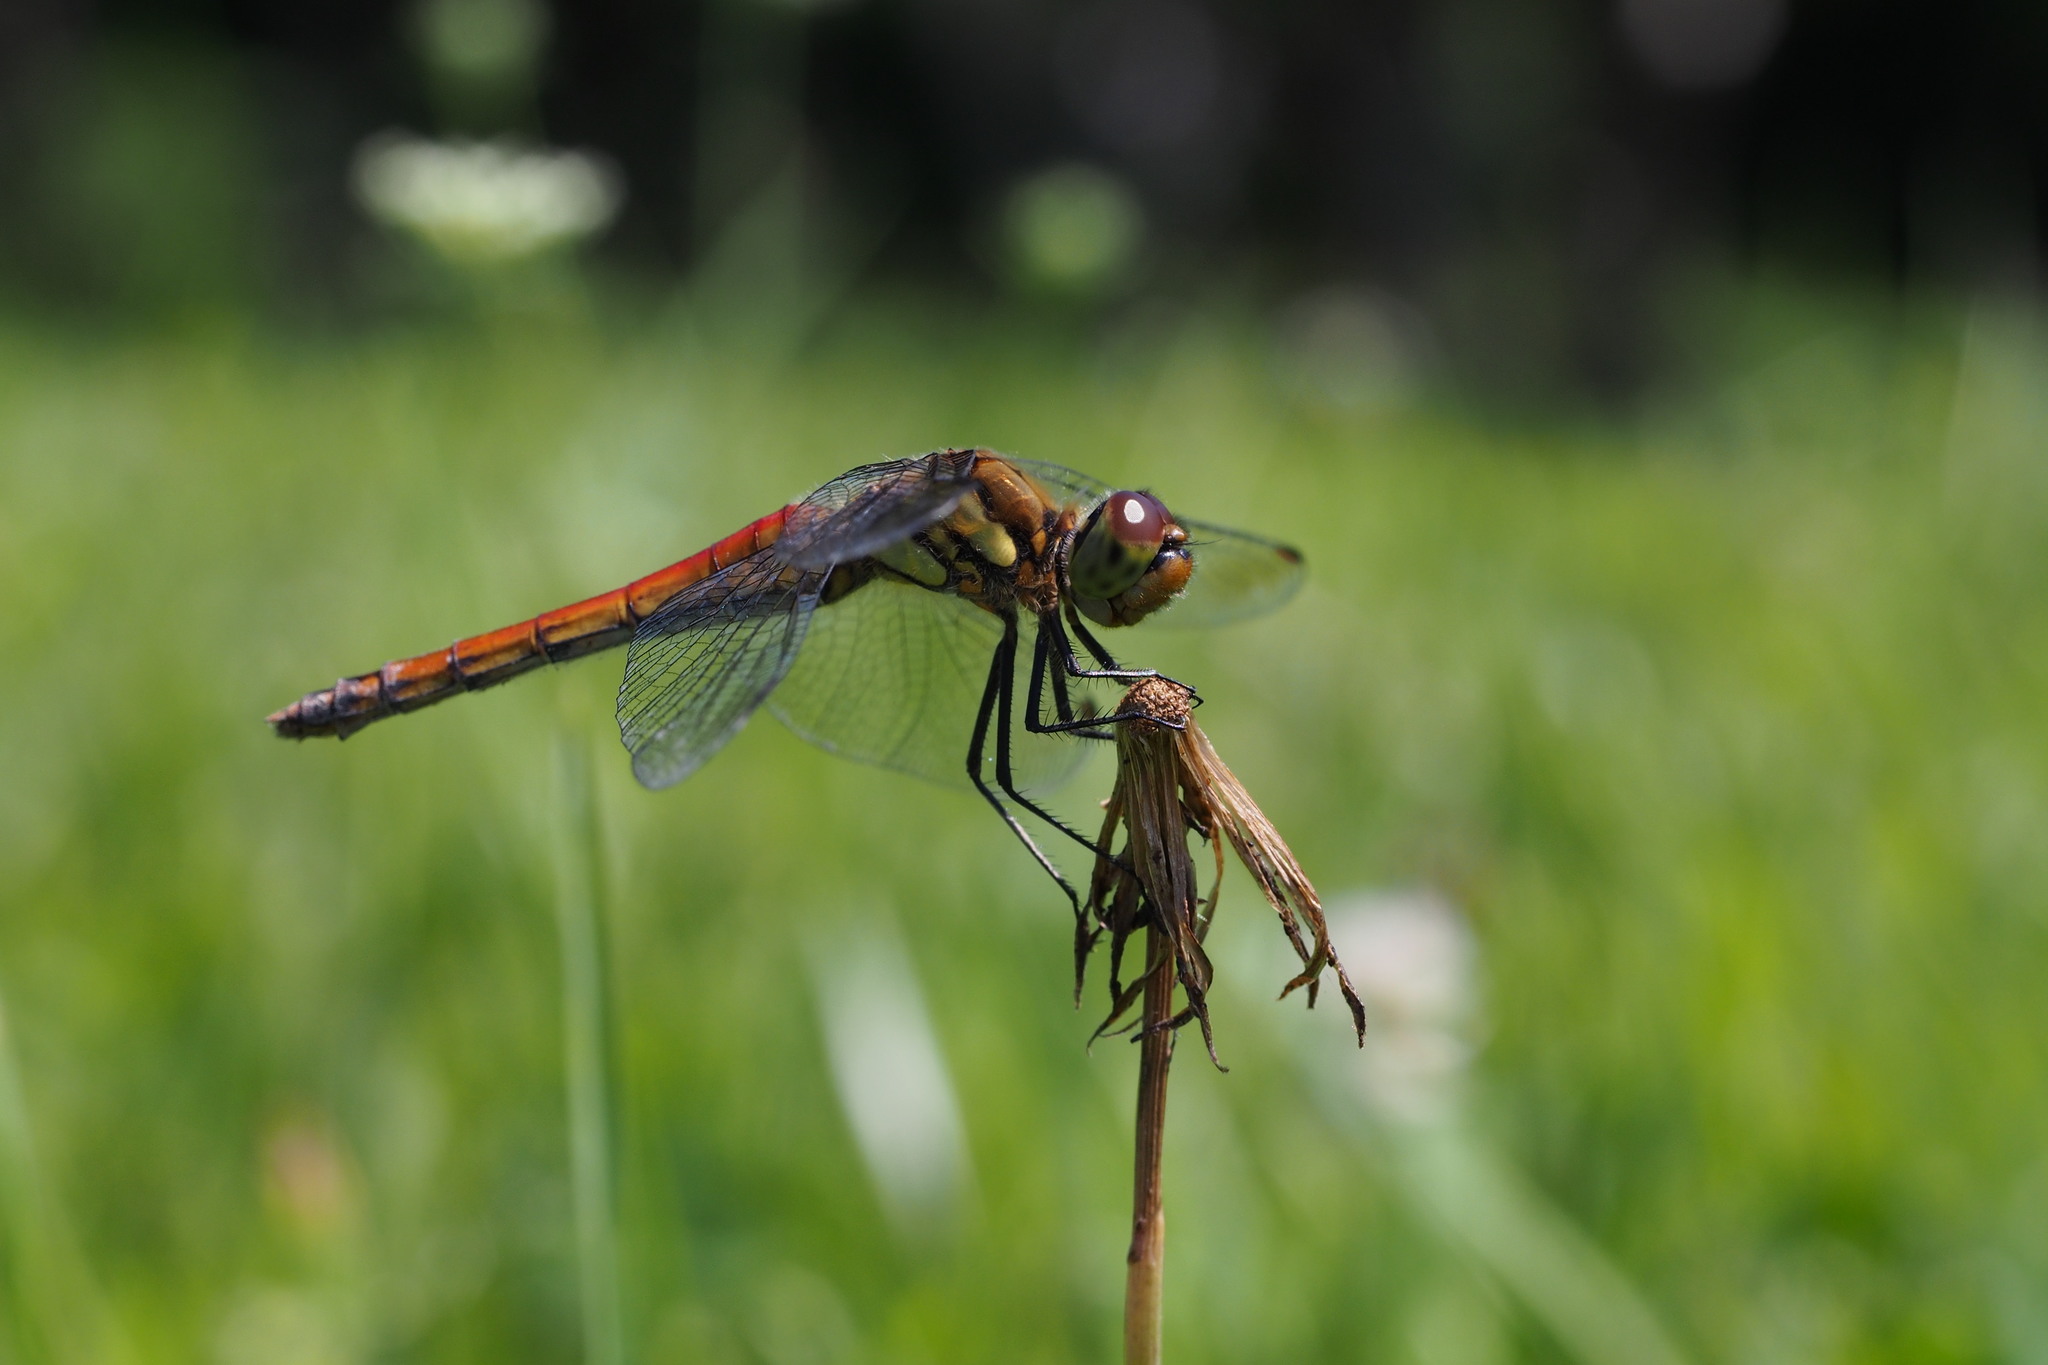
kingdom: Animalia
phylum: Arthropoda
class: Insecta
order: Odonata
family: Libellulidae
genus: Sympetrum
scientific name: Sympetrum frequens
